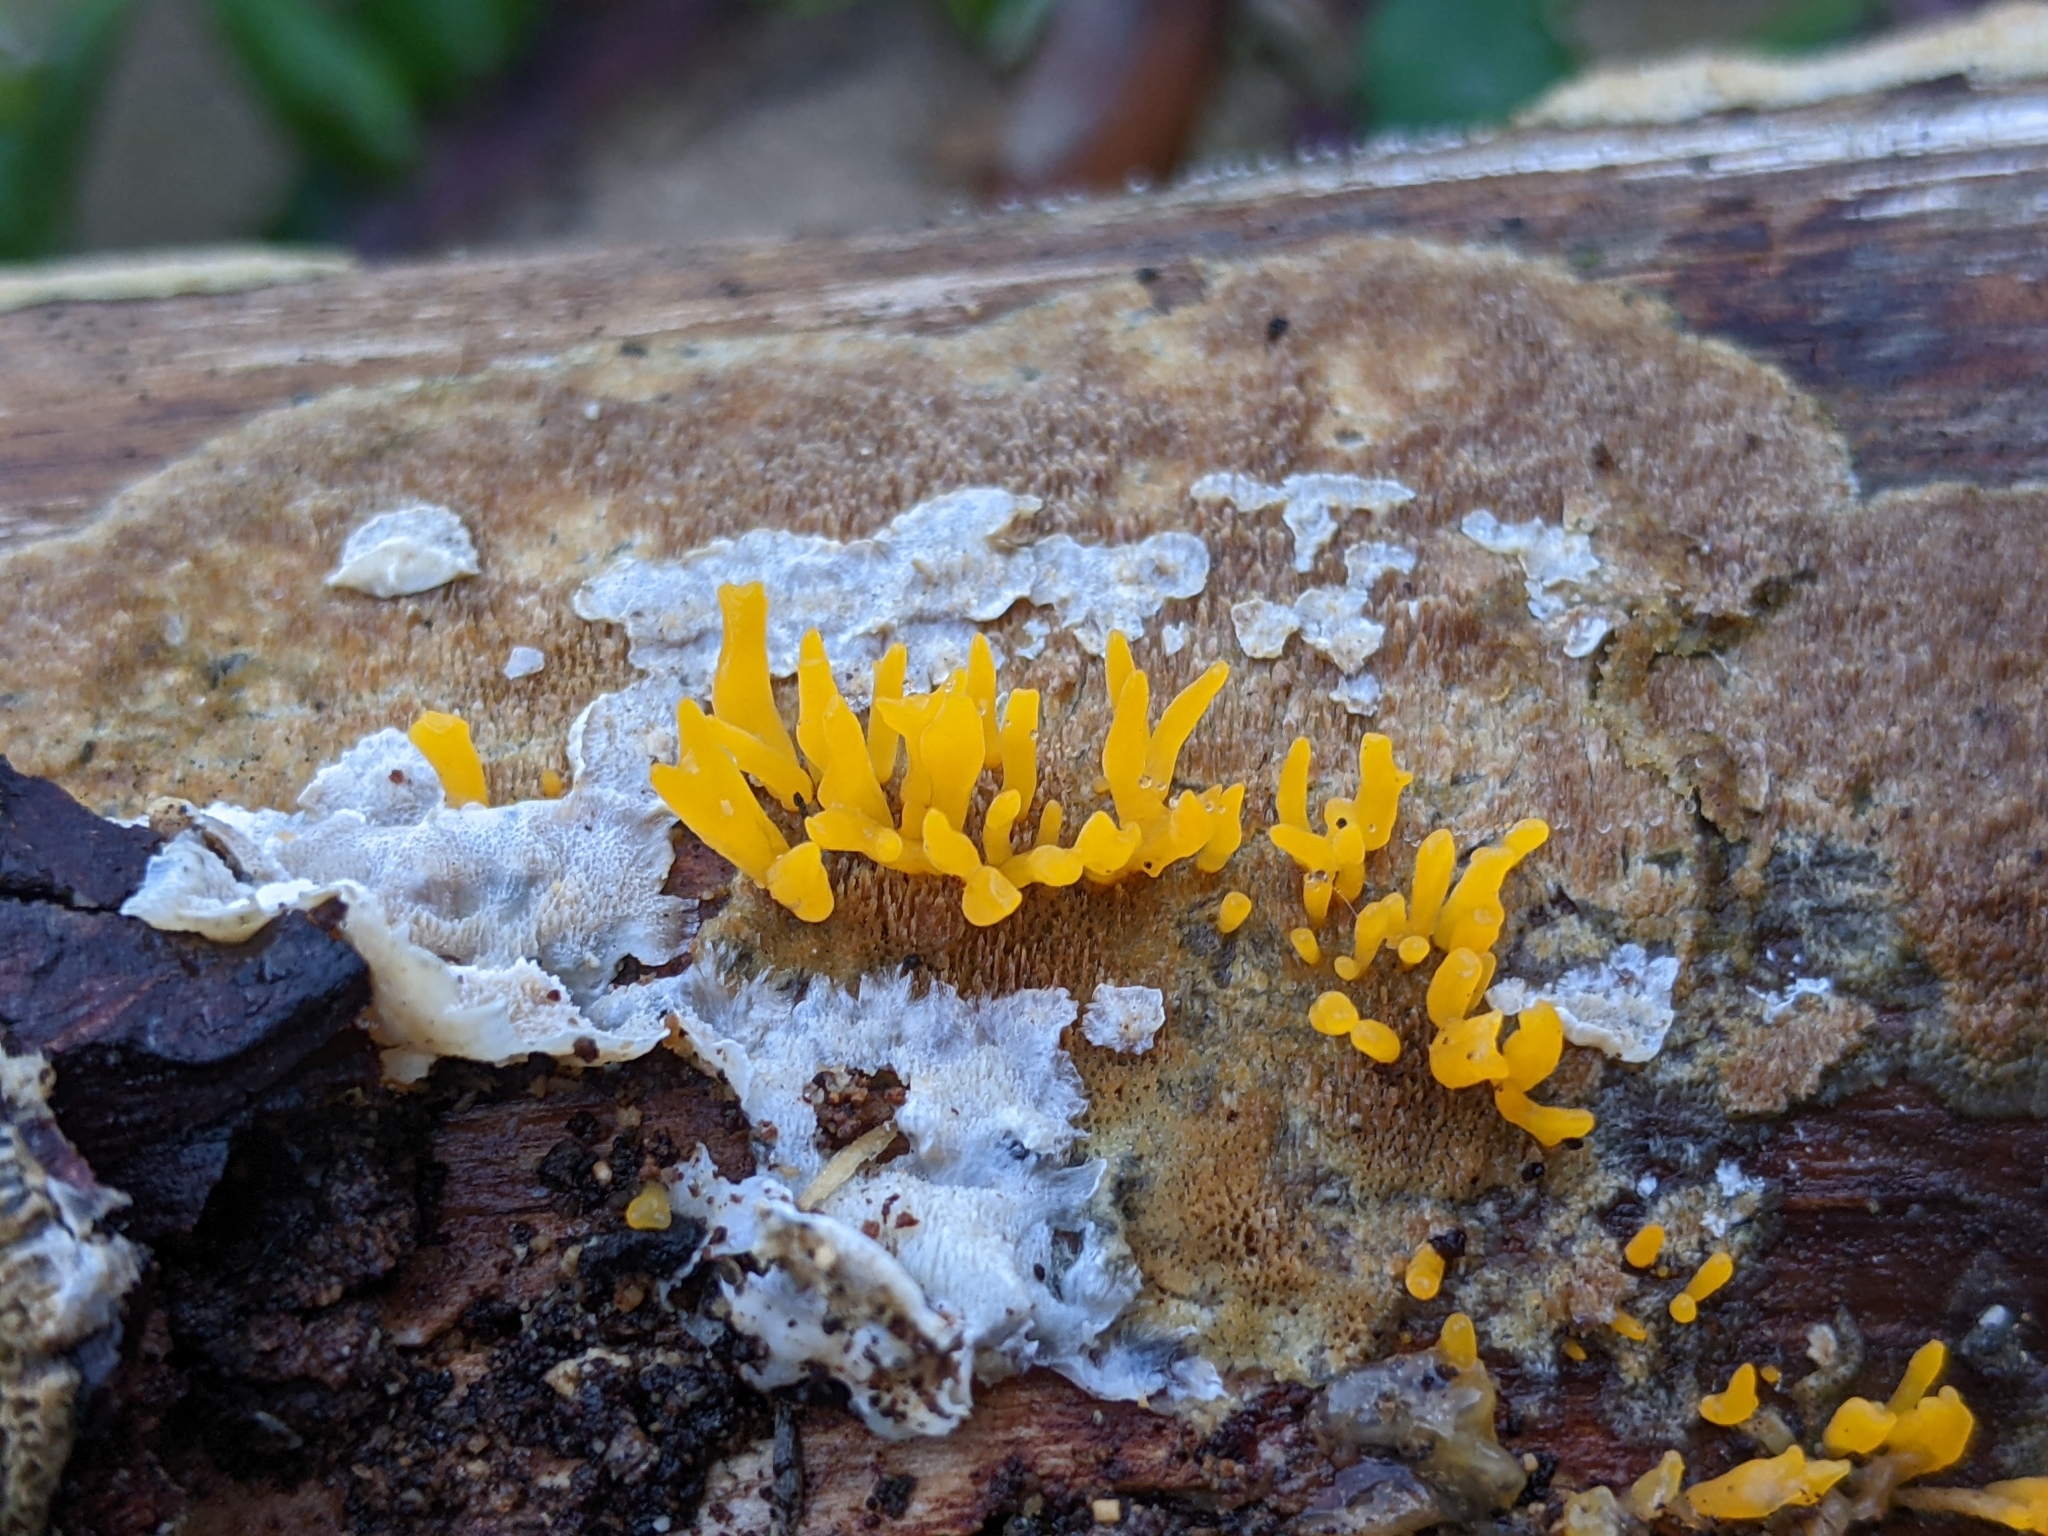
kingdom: Fungi
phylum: Basidiomycota
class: Dacrymycetes
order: Dacrymycetales
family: Dacrymycetaceae
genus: Calocera
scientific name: Calocera cornea
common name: Small stagshorn
